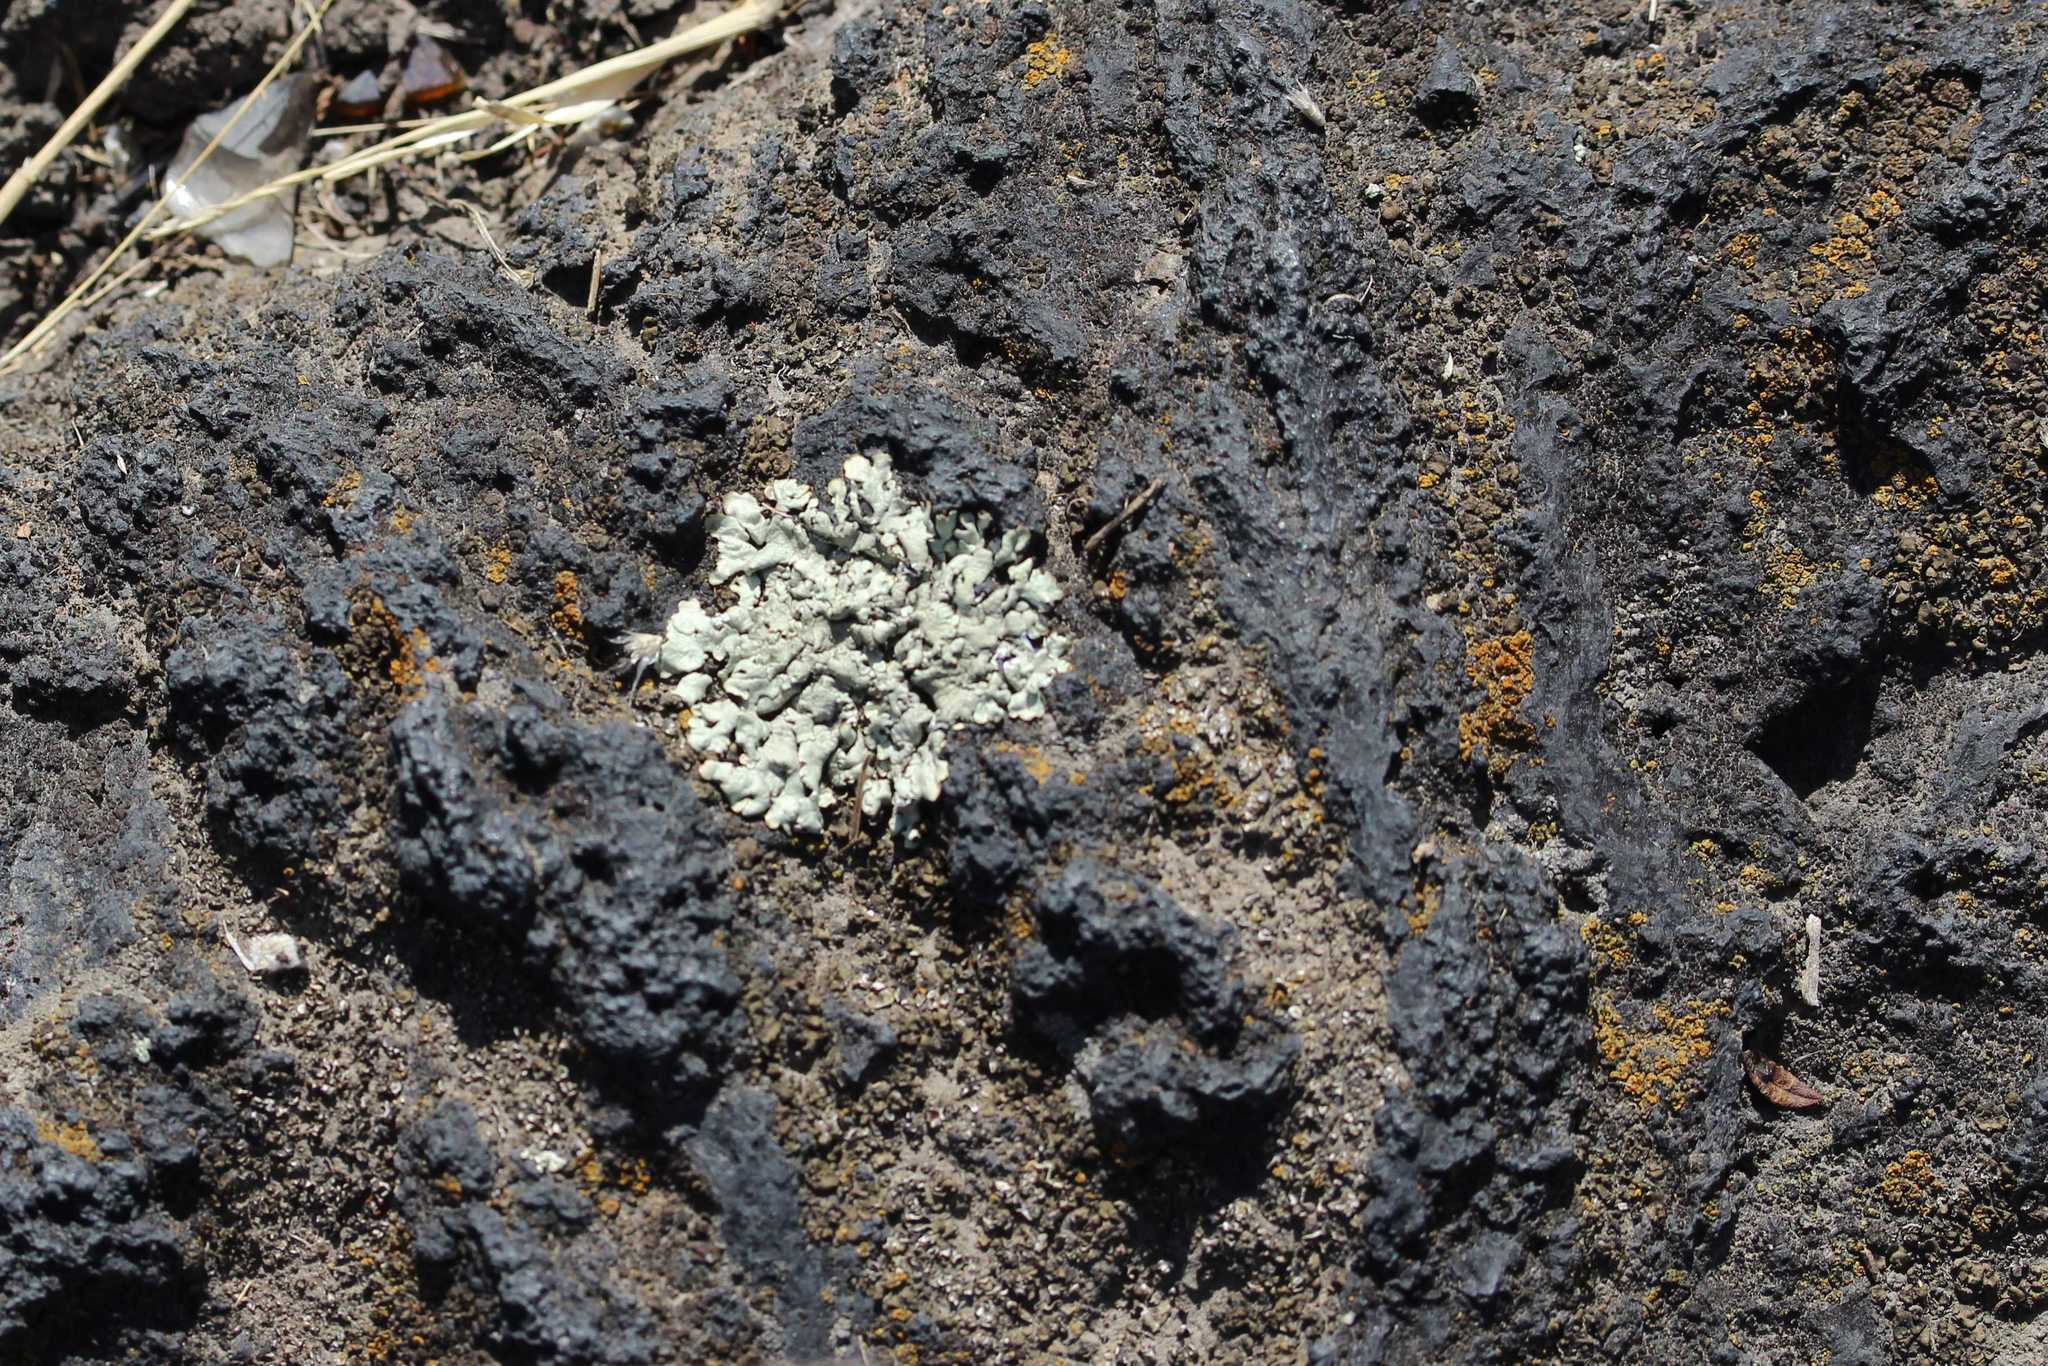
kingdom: Fungi
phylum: Ascomycota
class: Lecanoromycetes
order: Lecanorales
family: Parmeliaceae
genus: Xanthoparmelia
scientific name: Xanthoparmelia
